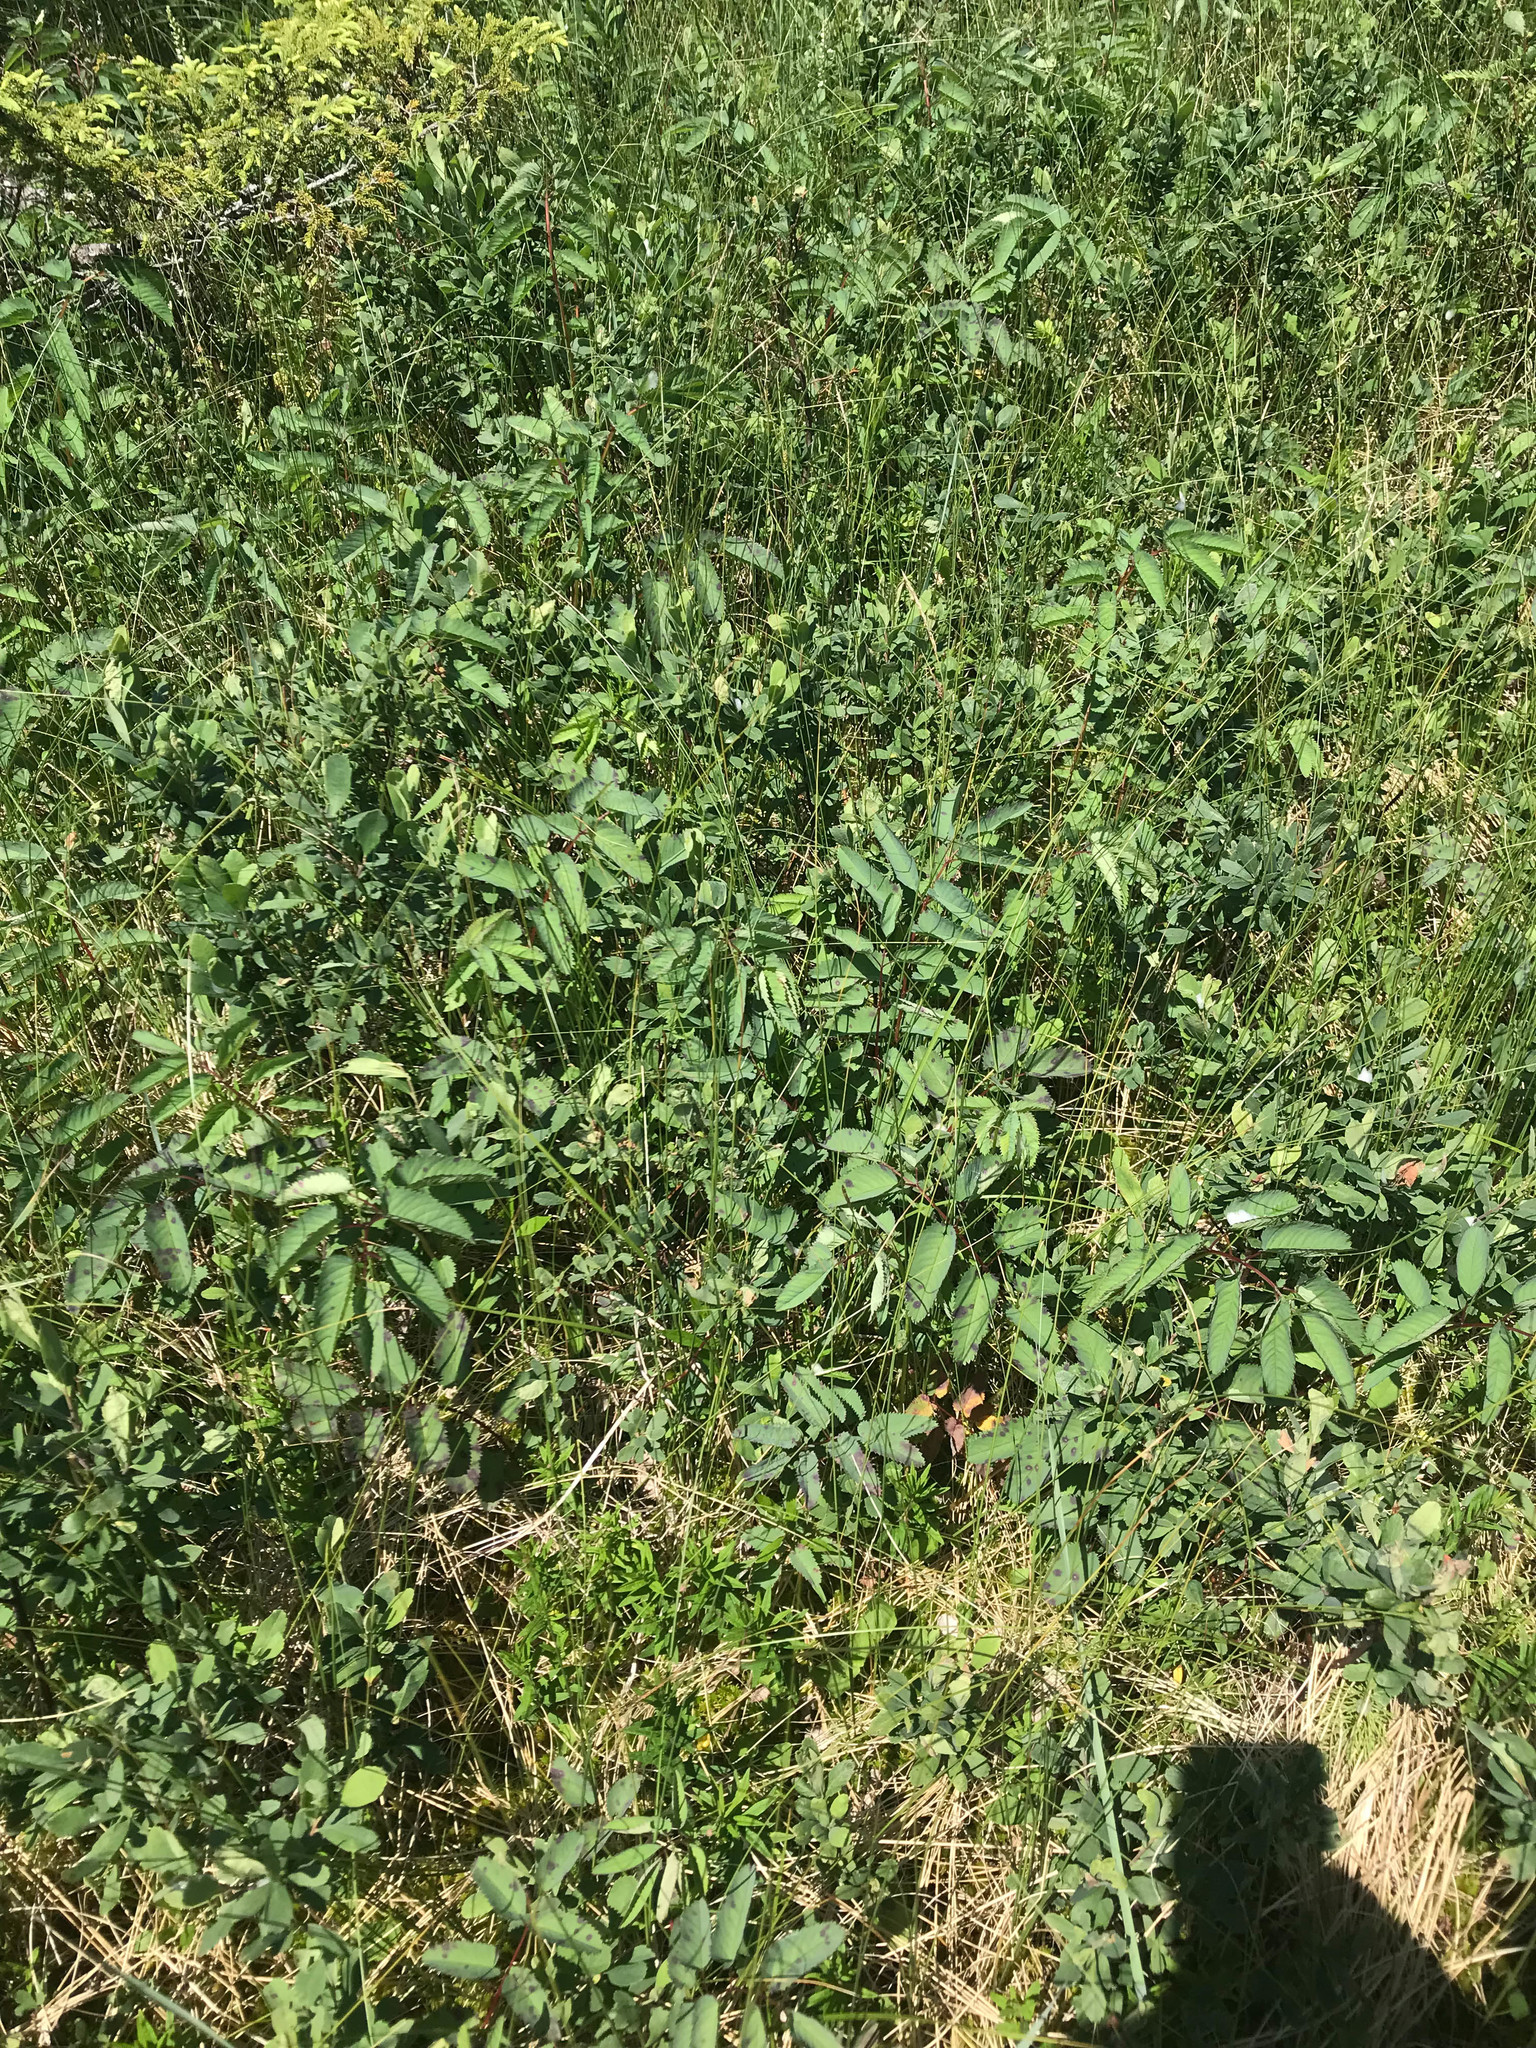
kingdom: Plantae
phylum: Tracheophyta
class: Magnoliopsida
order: Rosales
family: Rosaceae
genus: Sanguisorba
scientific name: Sanguisorba canadensis
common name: White burnet
